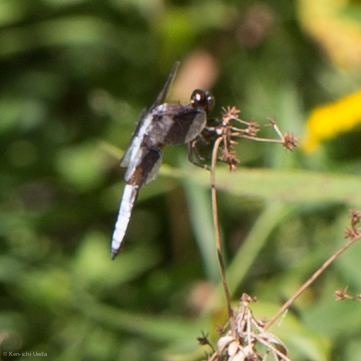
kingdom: Animalia
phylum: Arthropoda
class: Insecta
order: Odonata
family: Libellulidae
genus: Plathemis
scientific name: Plathemis lydia
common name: Common whitetail
